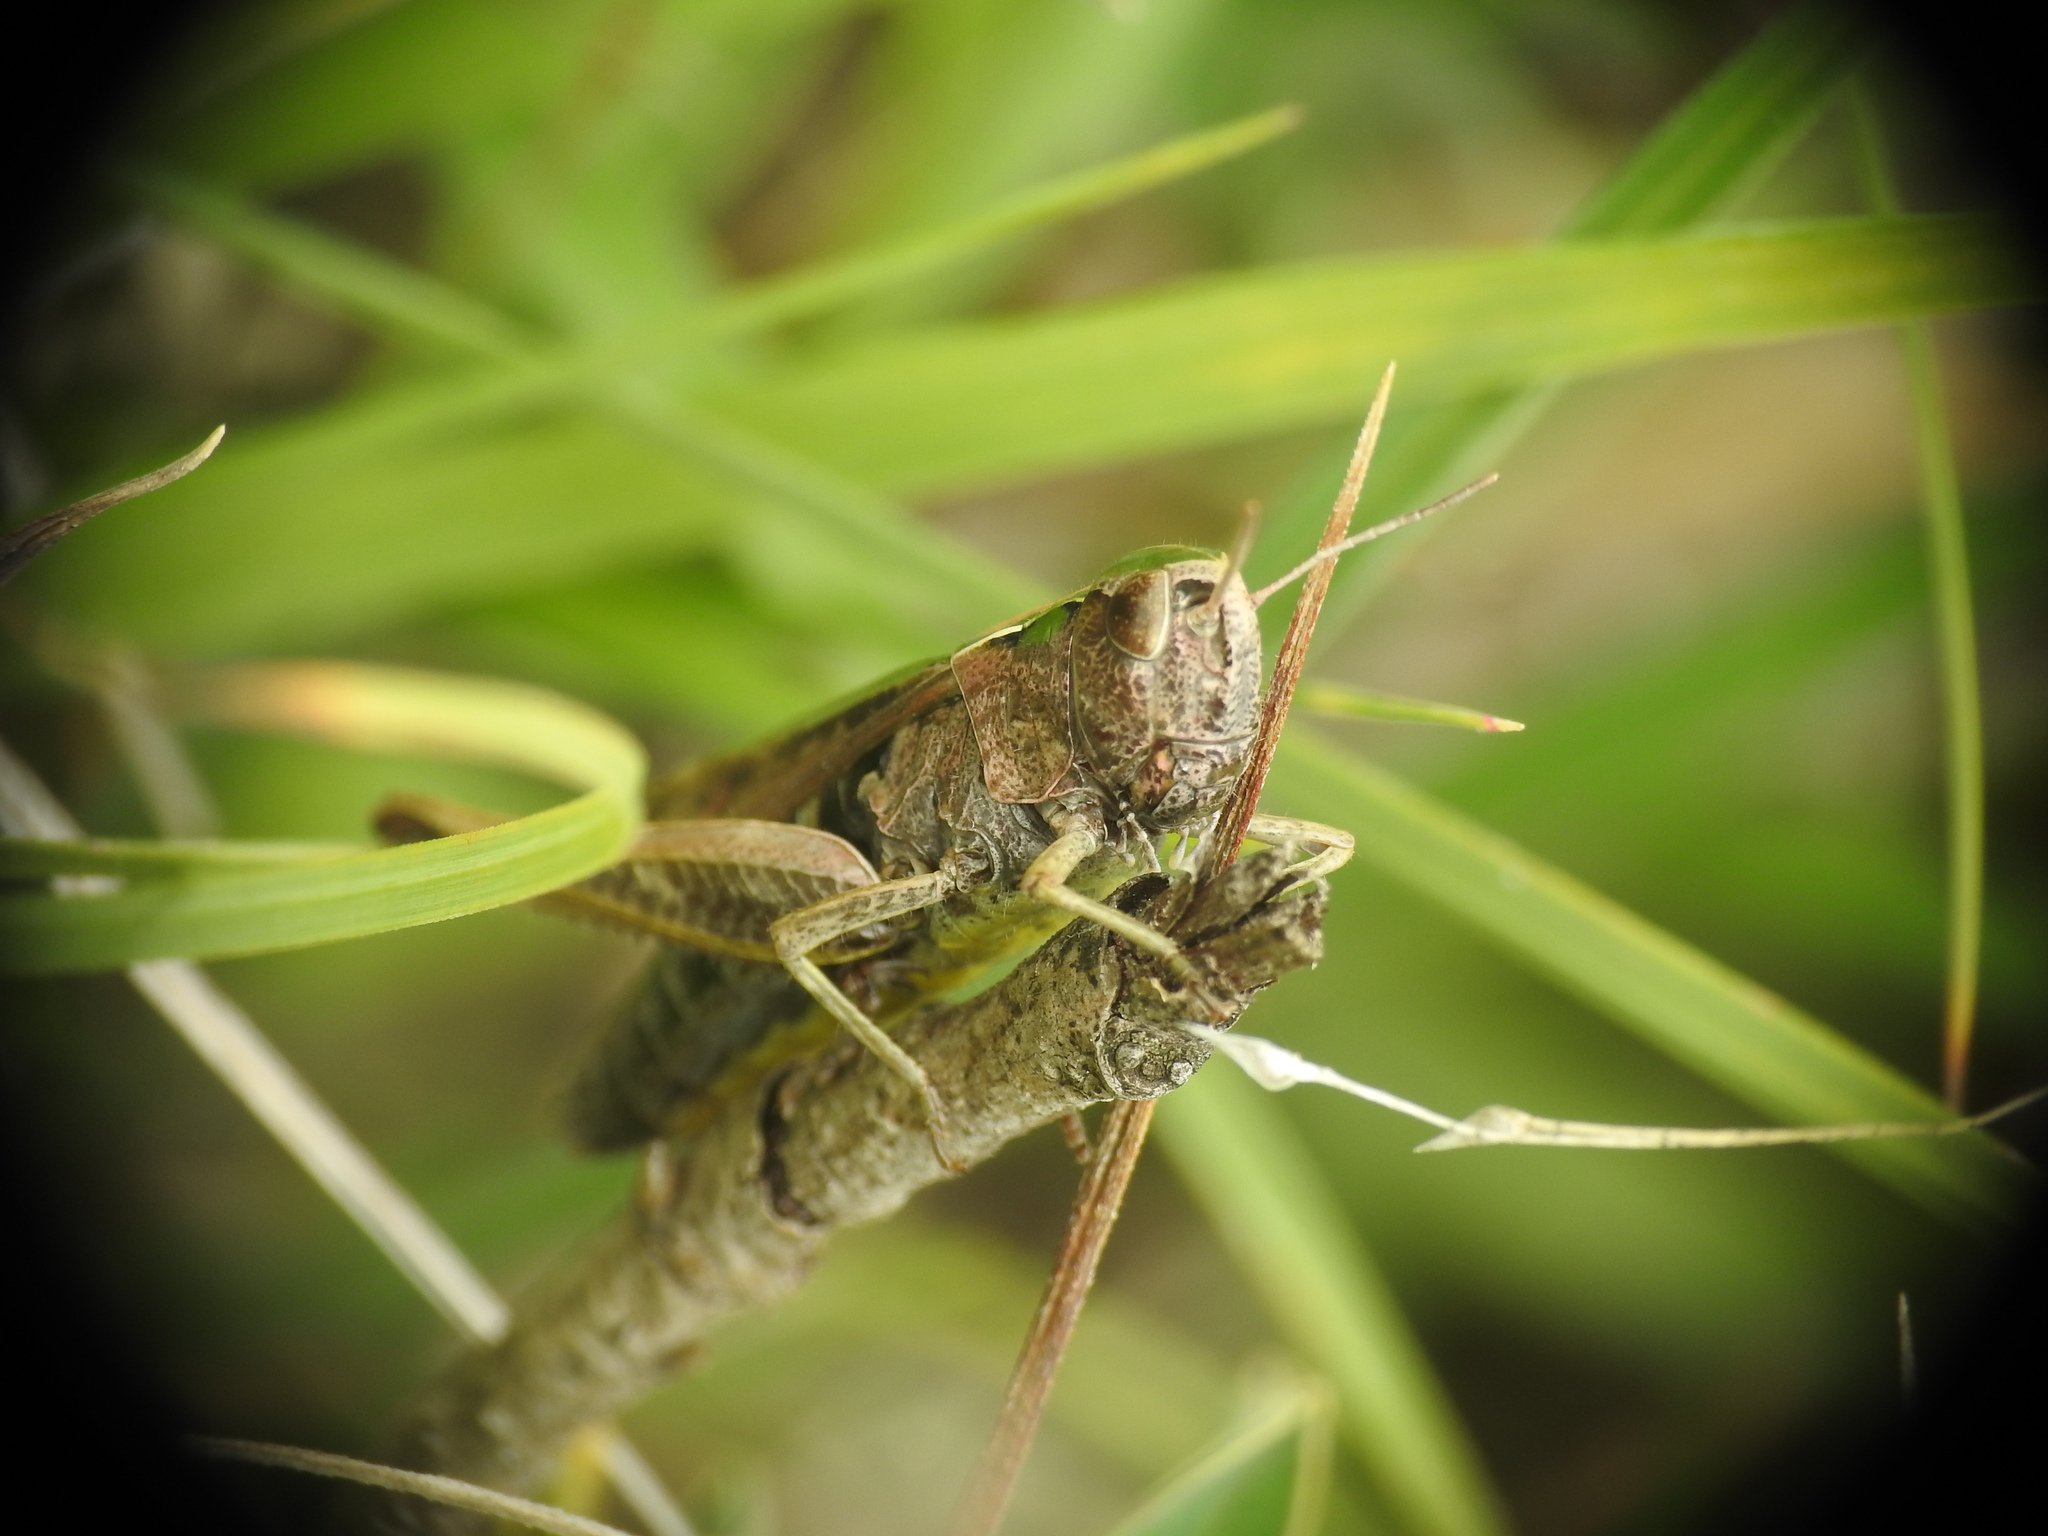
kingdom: Animalia
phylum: Arthropoda
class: Insecta
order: Orthoptera
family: Acrididae
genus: Omocestus
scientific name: Omocestus viridulus
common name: Common green grasshopper
